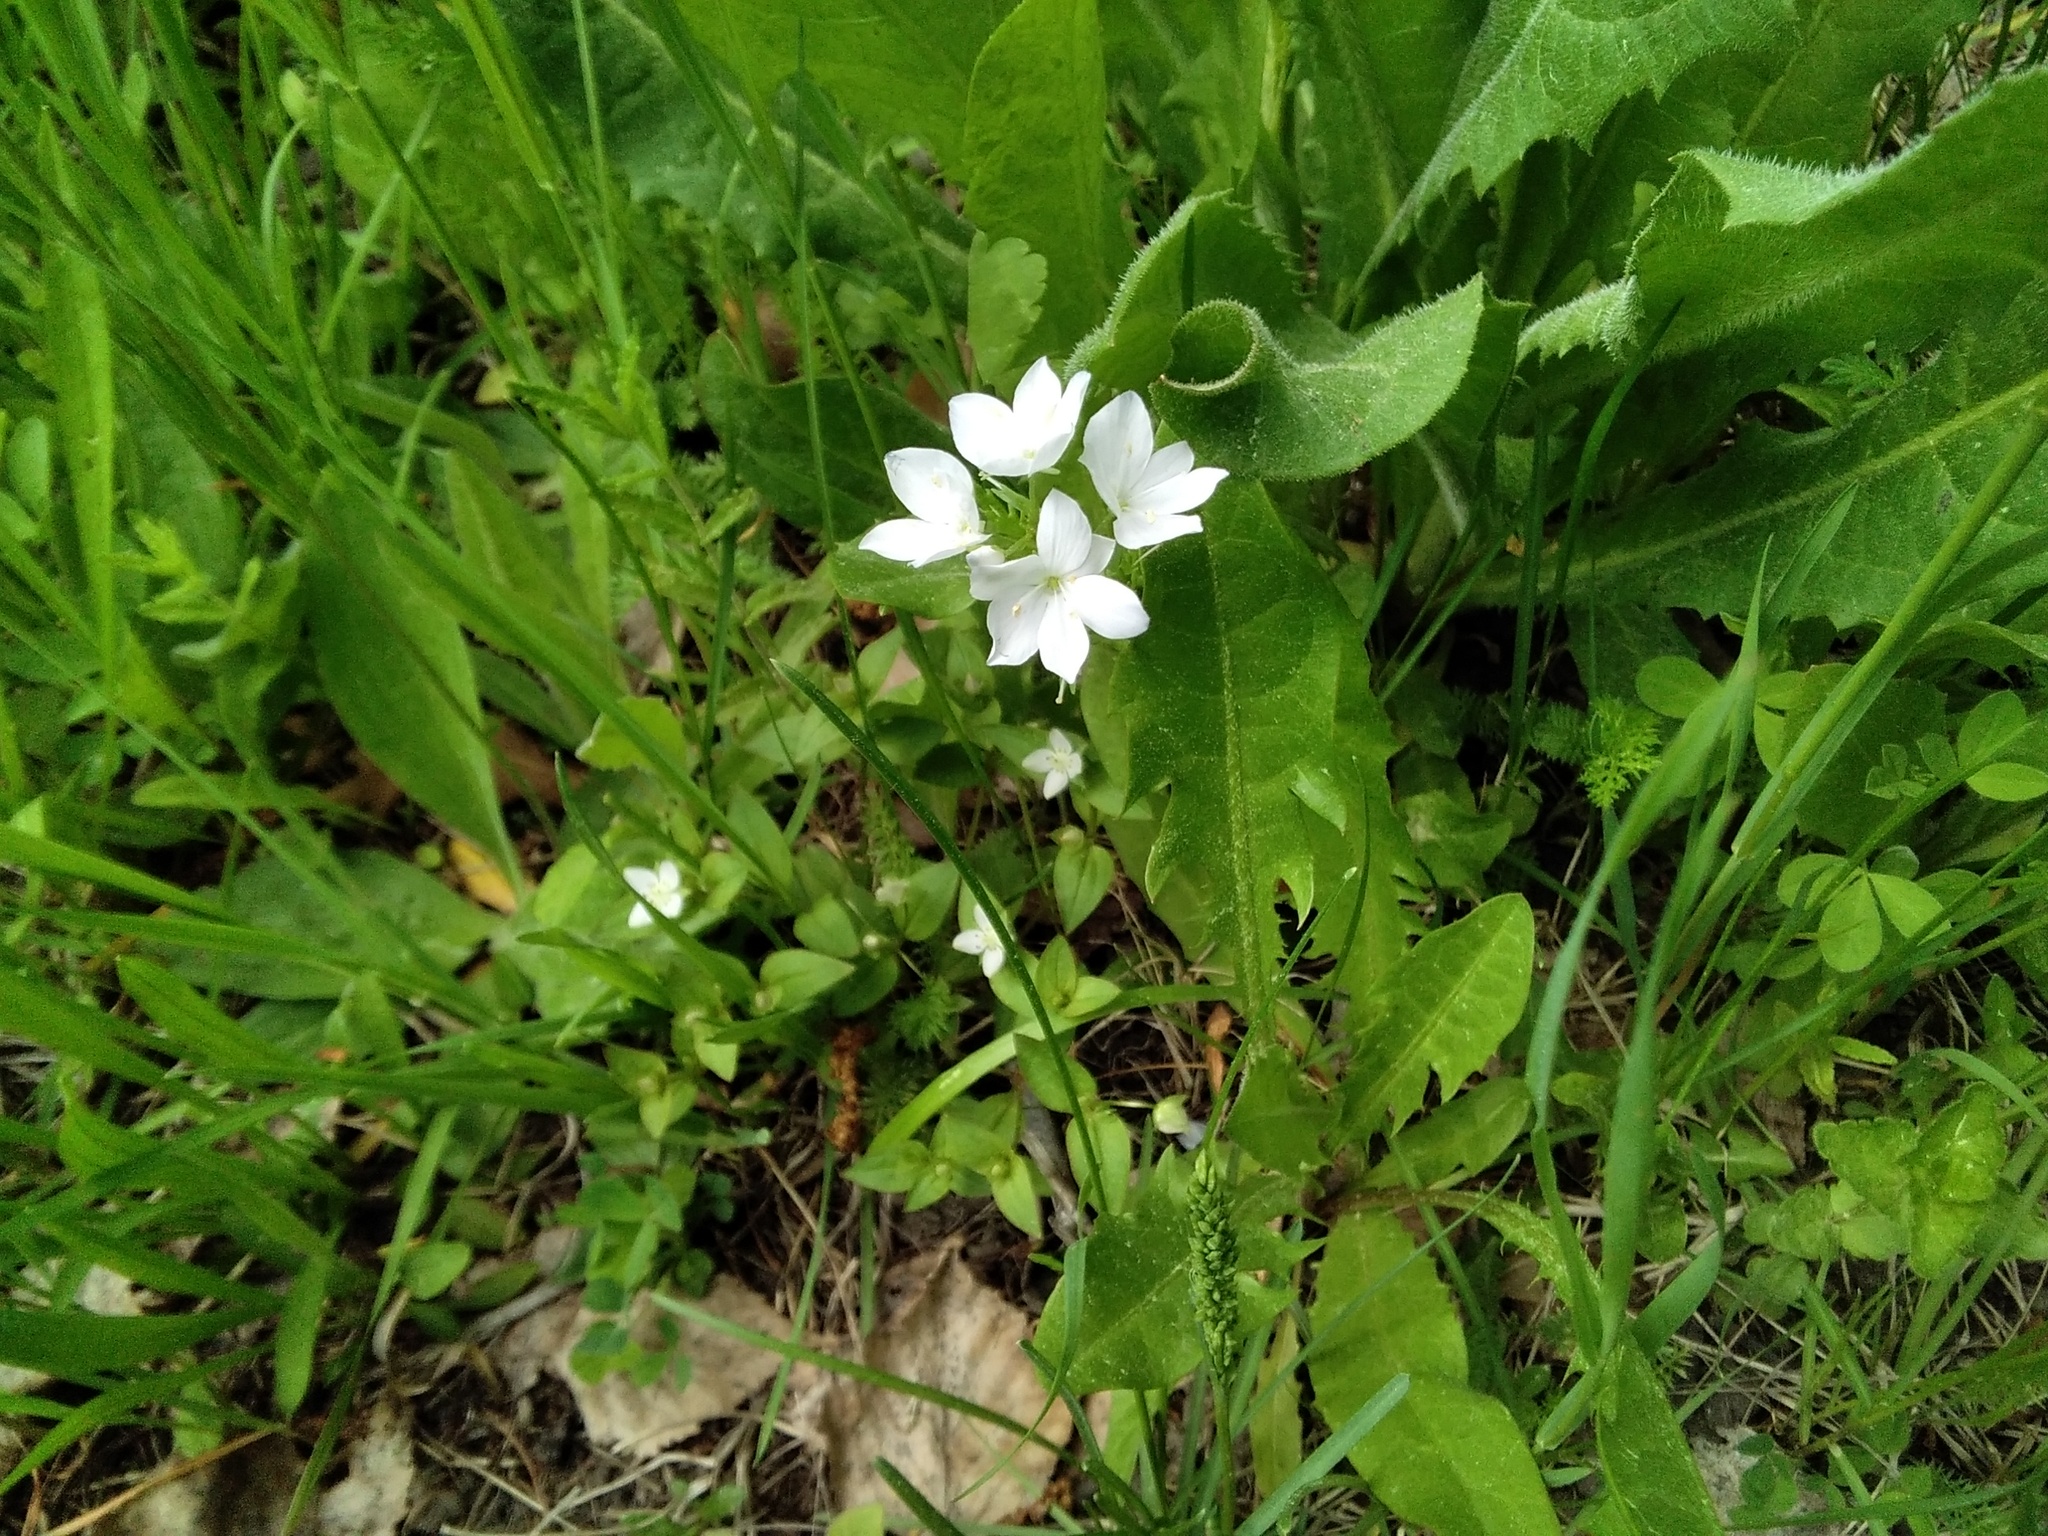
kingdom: Plantae
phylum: Tracheophyta
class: Magnoliopsida
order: Lamiales
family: Plantaginaceae
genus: Veronica
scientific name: Veronica krylovii
